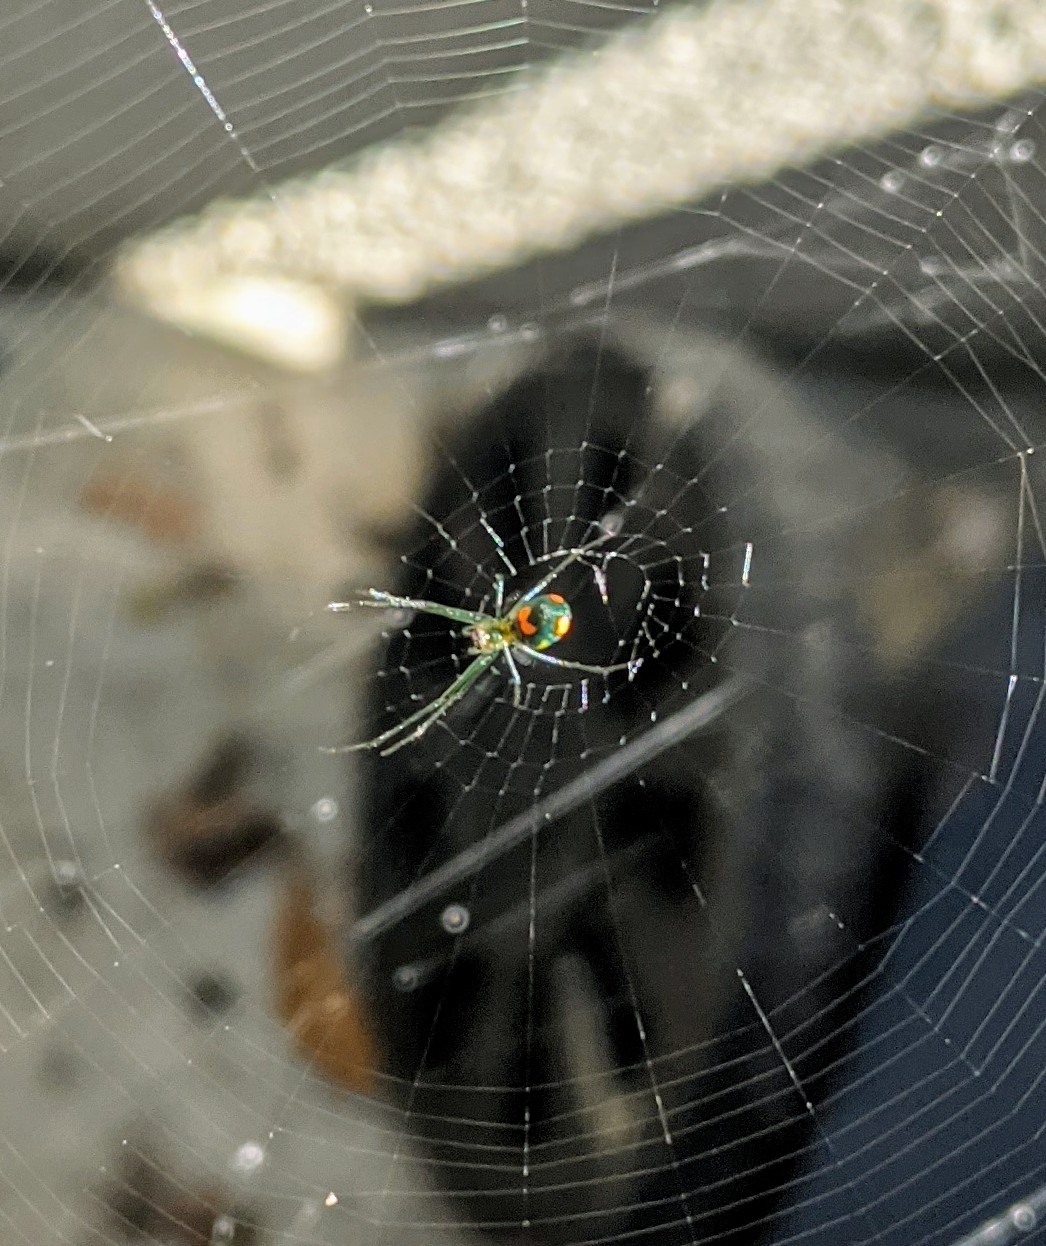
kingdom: Animalia
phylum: Arthropoda
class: Arachnida
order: Araneae
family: Tetragnathidae
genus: Leucauge
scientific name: Leucauge argyrobapta
